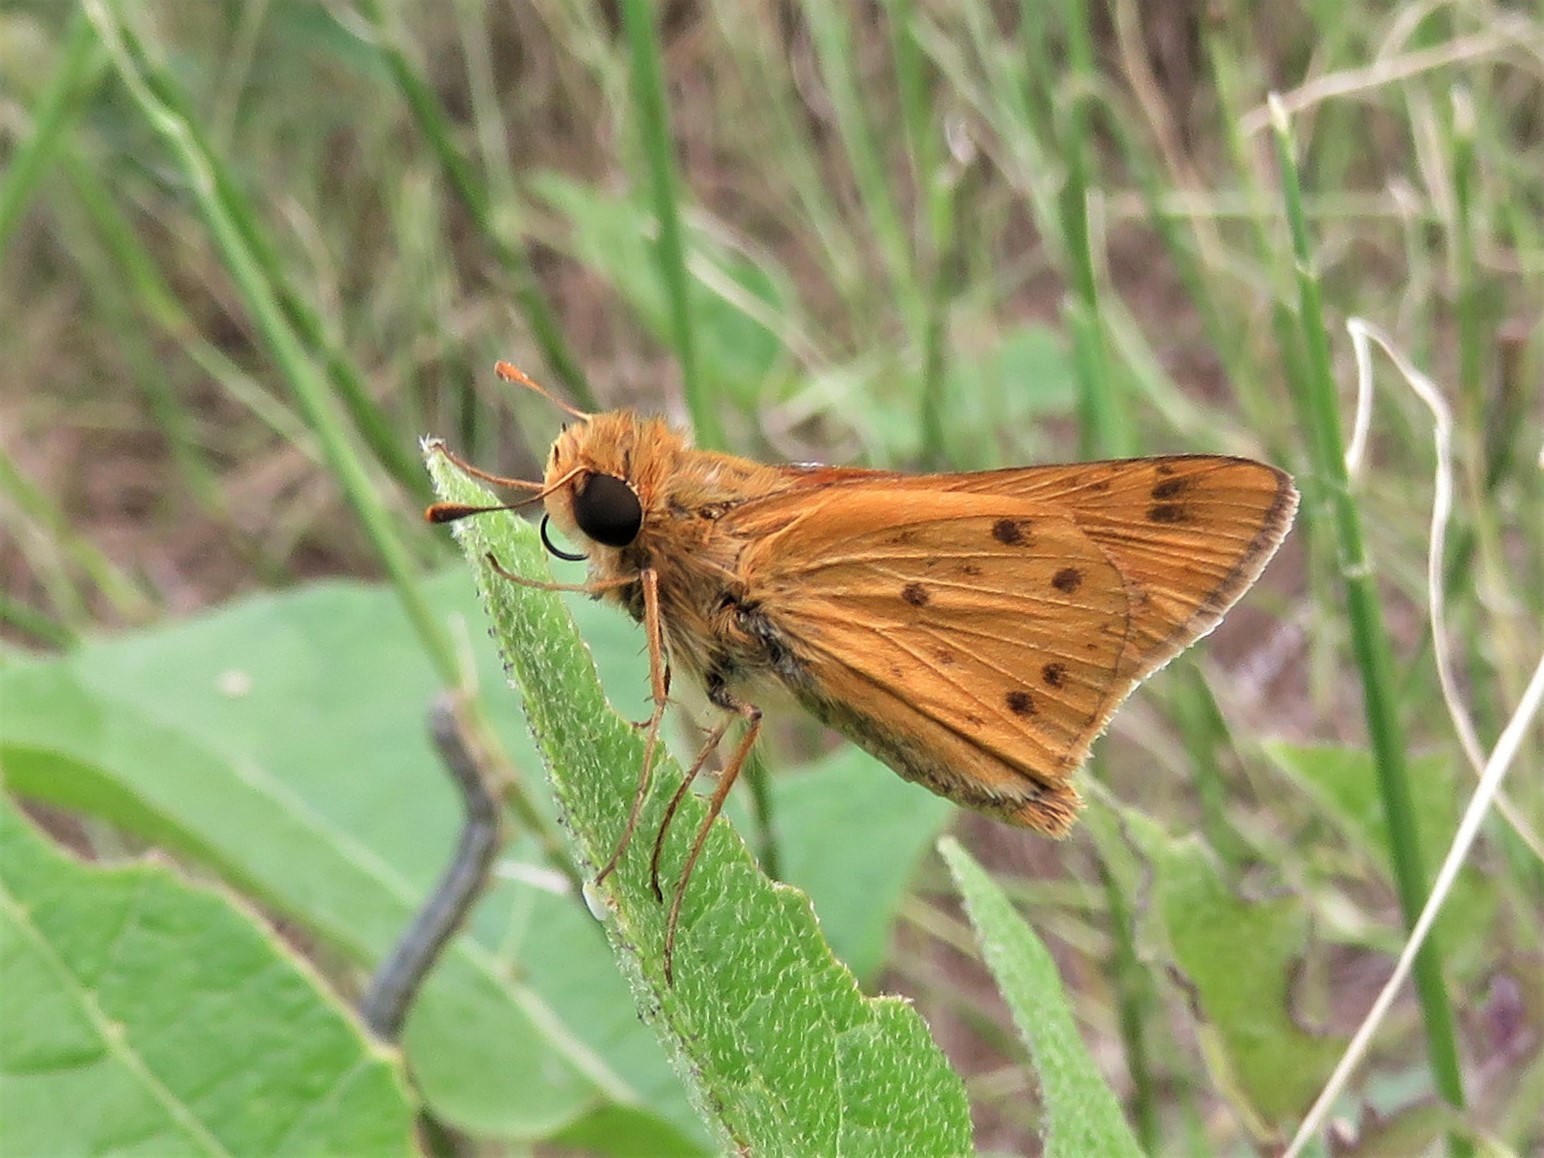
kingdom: Animalia
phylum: Arthropoda
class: Insecta
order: Lepidoptera
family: Hesperiidae
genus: Hylephila
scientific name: Hylephila phyleus
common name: Fiery skipper
